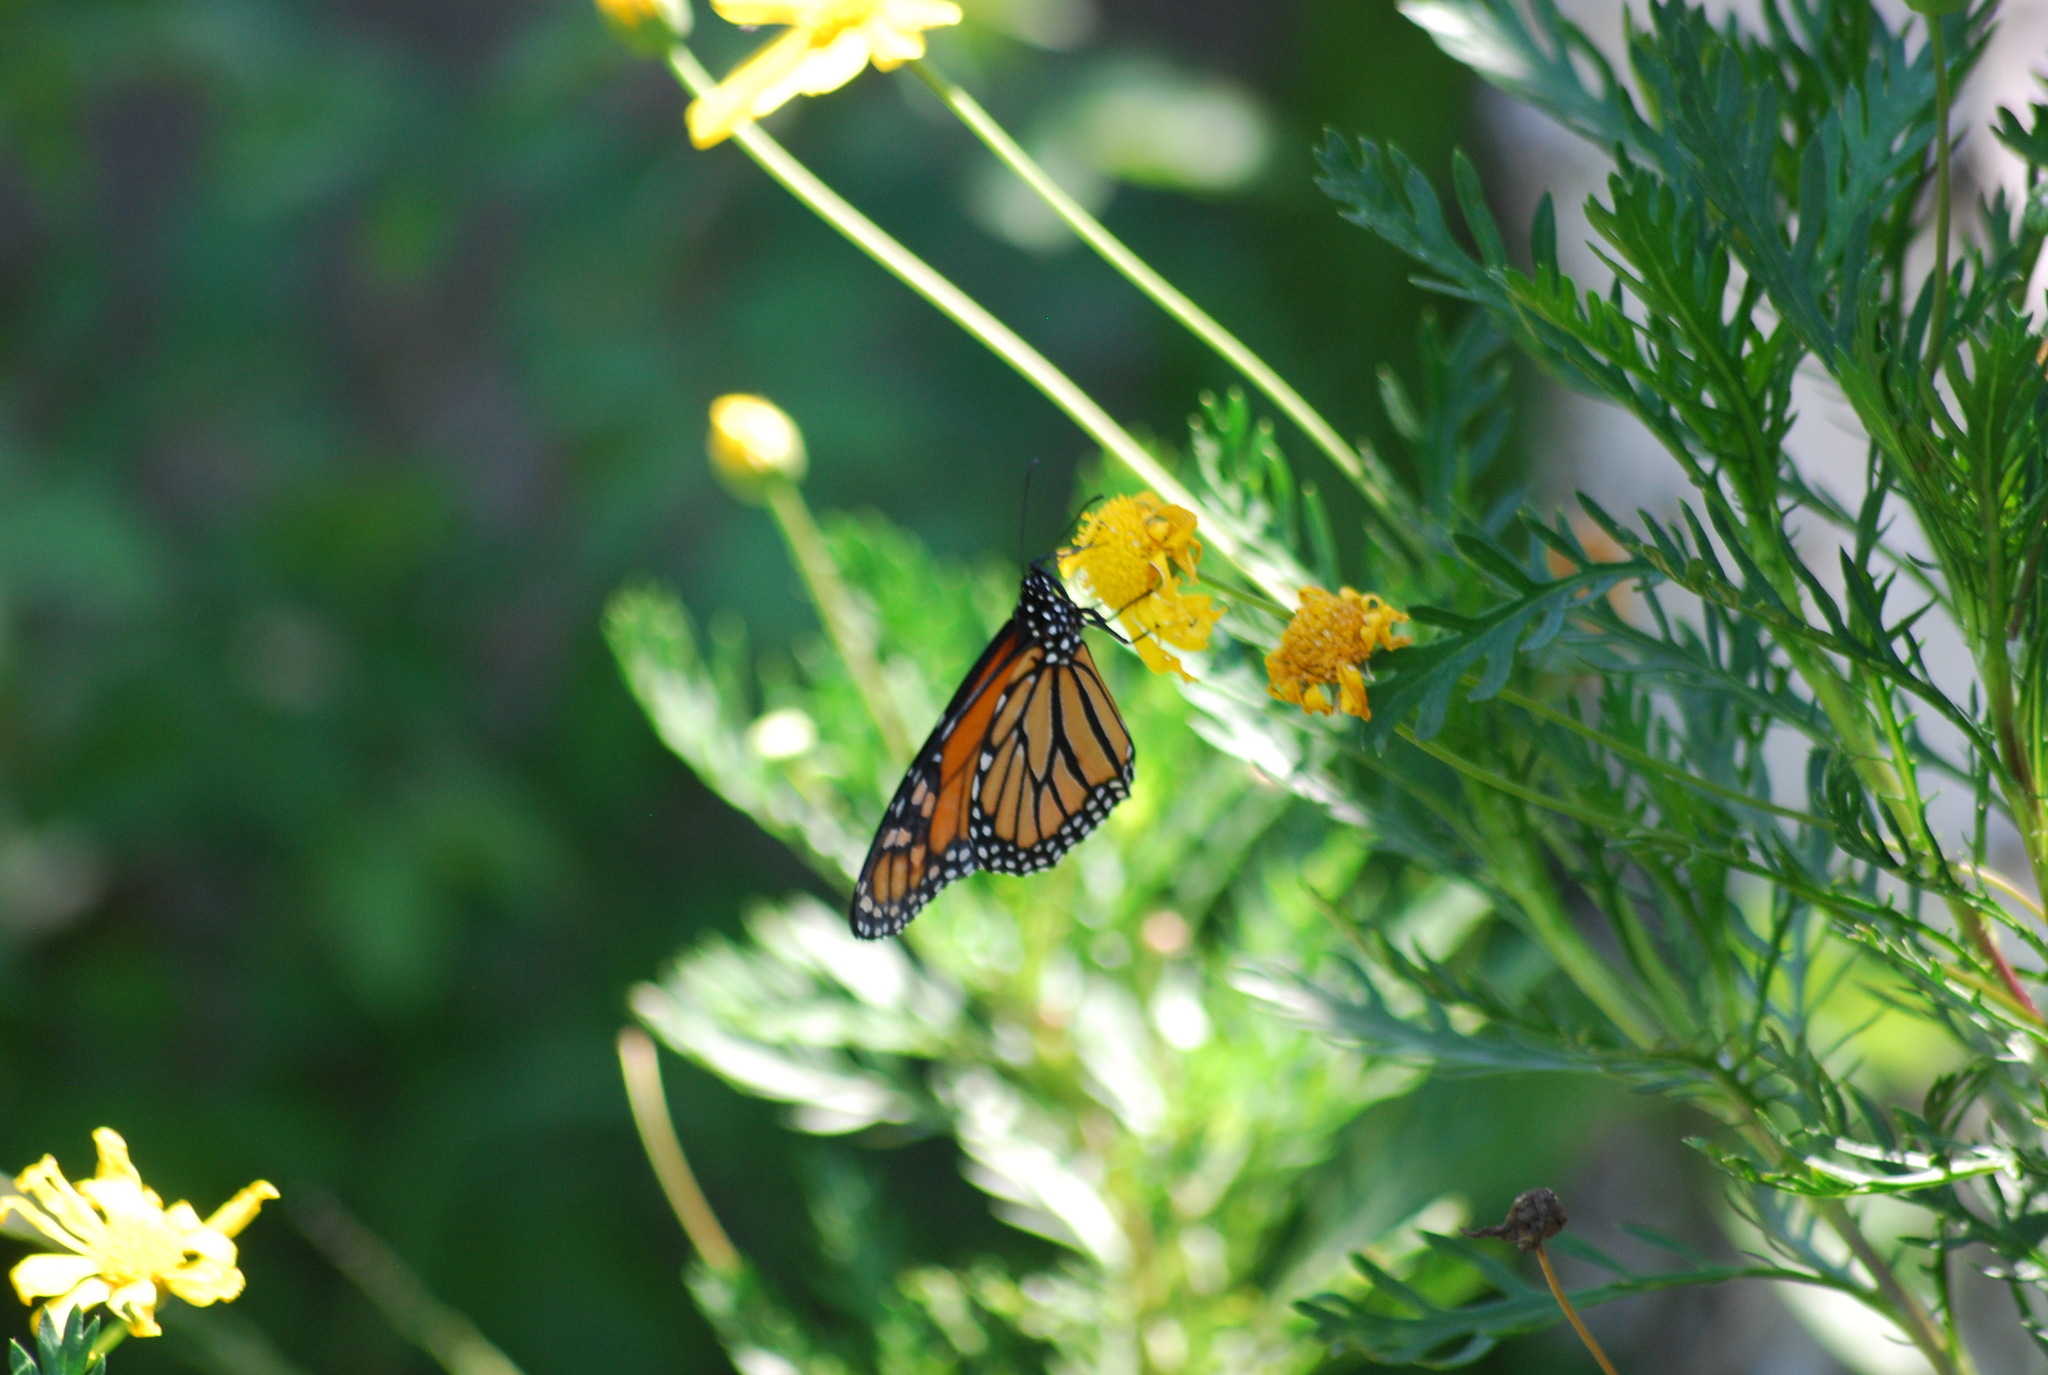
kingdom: Animalia
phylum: Arthropoda
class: Insecta
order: Lepidoptera
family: Nymphalidae
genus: Danaus
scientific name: Danaus plexippus
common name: Monarch
